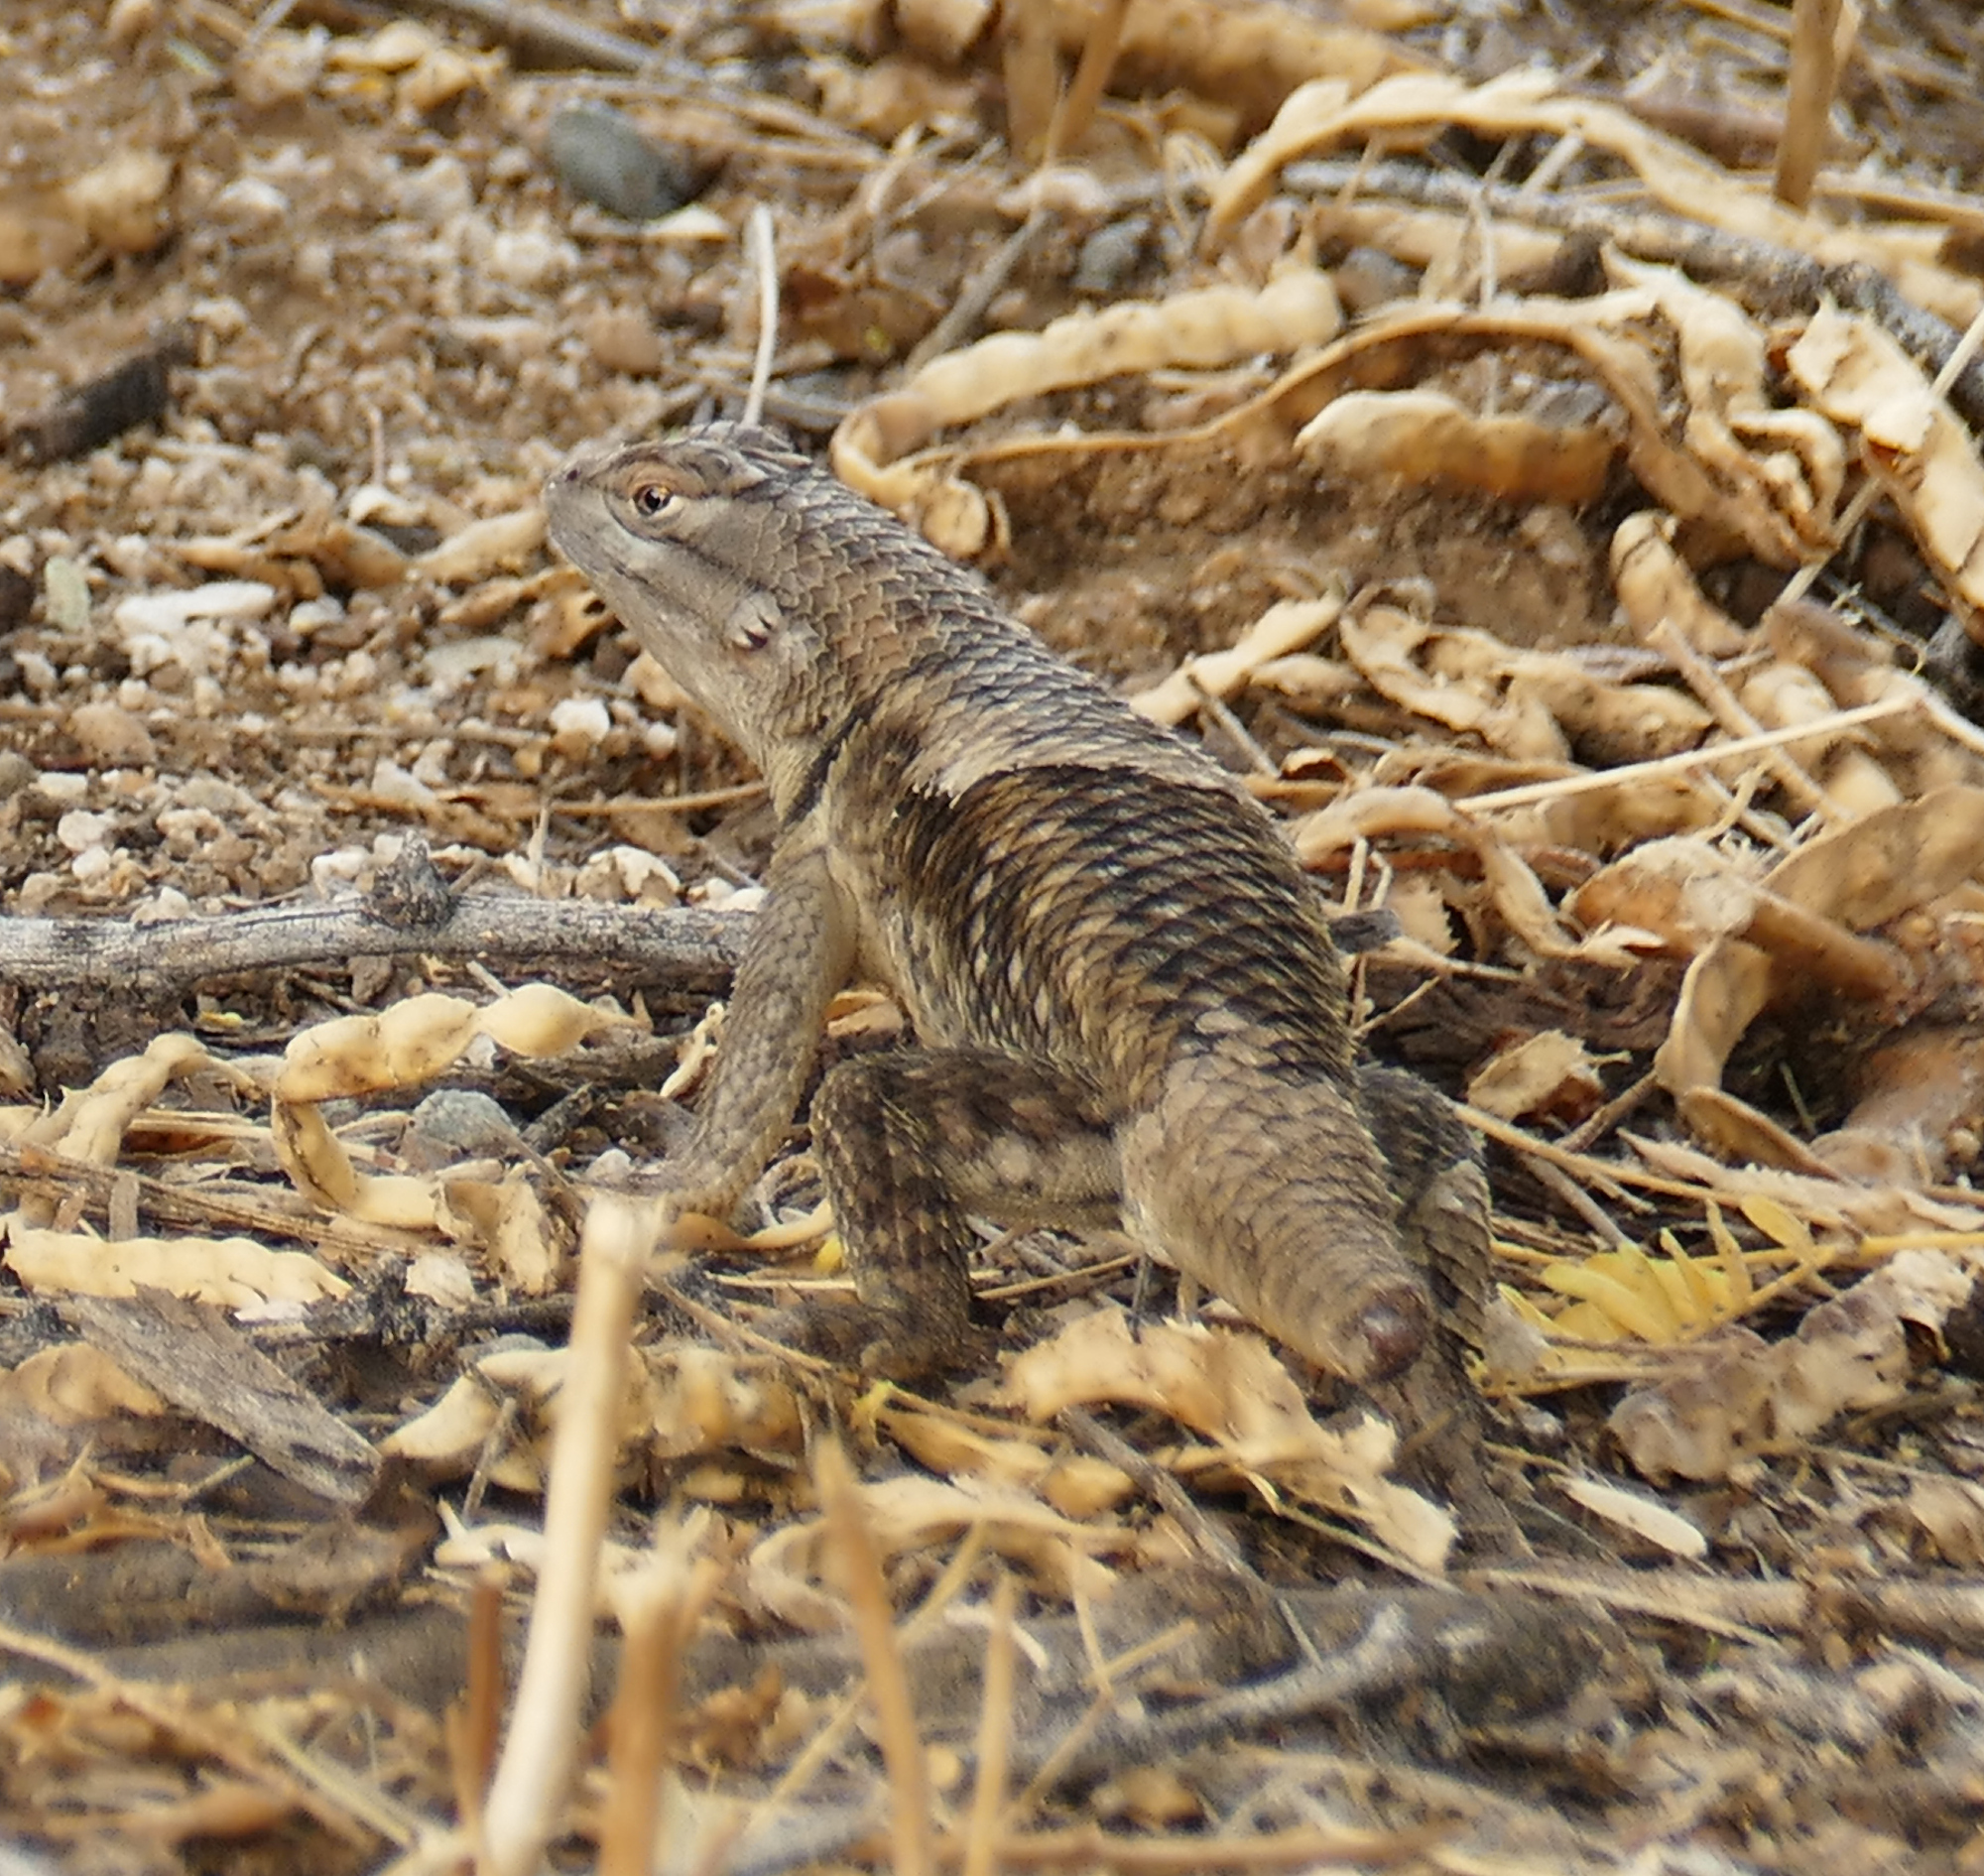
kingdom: Animalia
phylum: Chordata
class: Squamata
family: Phrynosomatidae
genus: Sceloporus
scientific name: Sceloporus magister
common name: Desert spiny lizard
